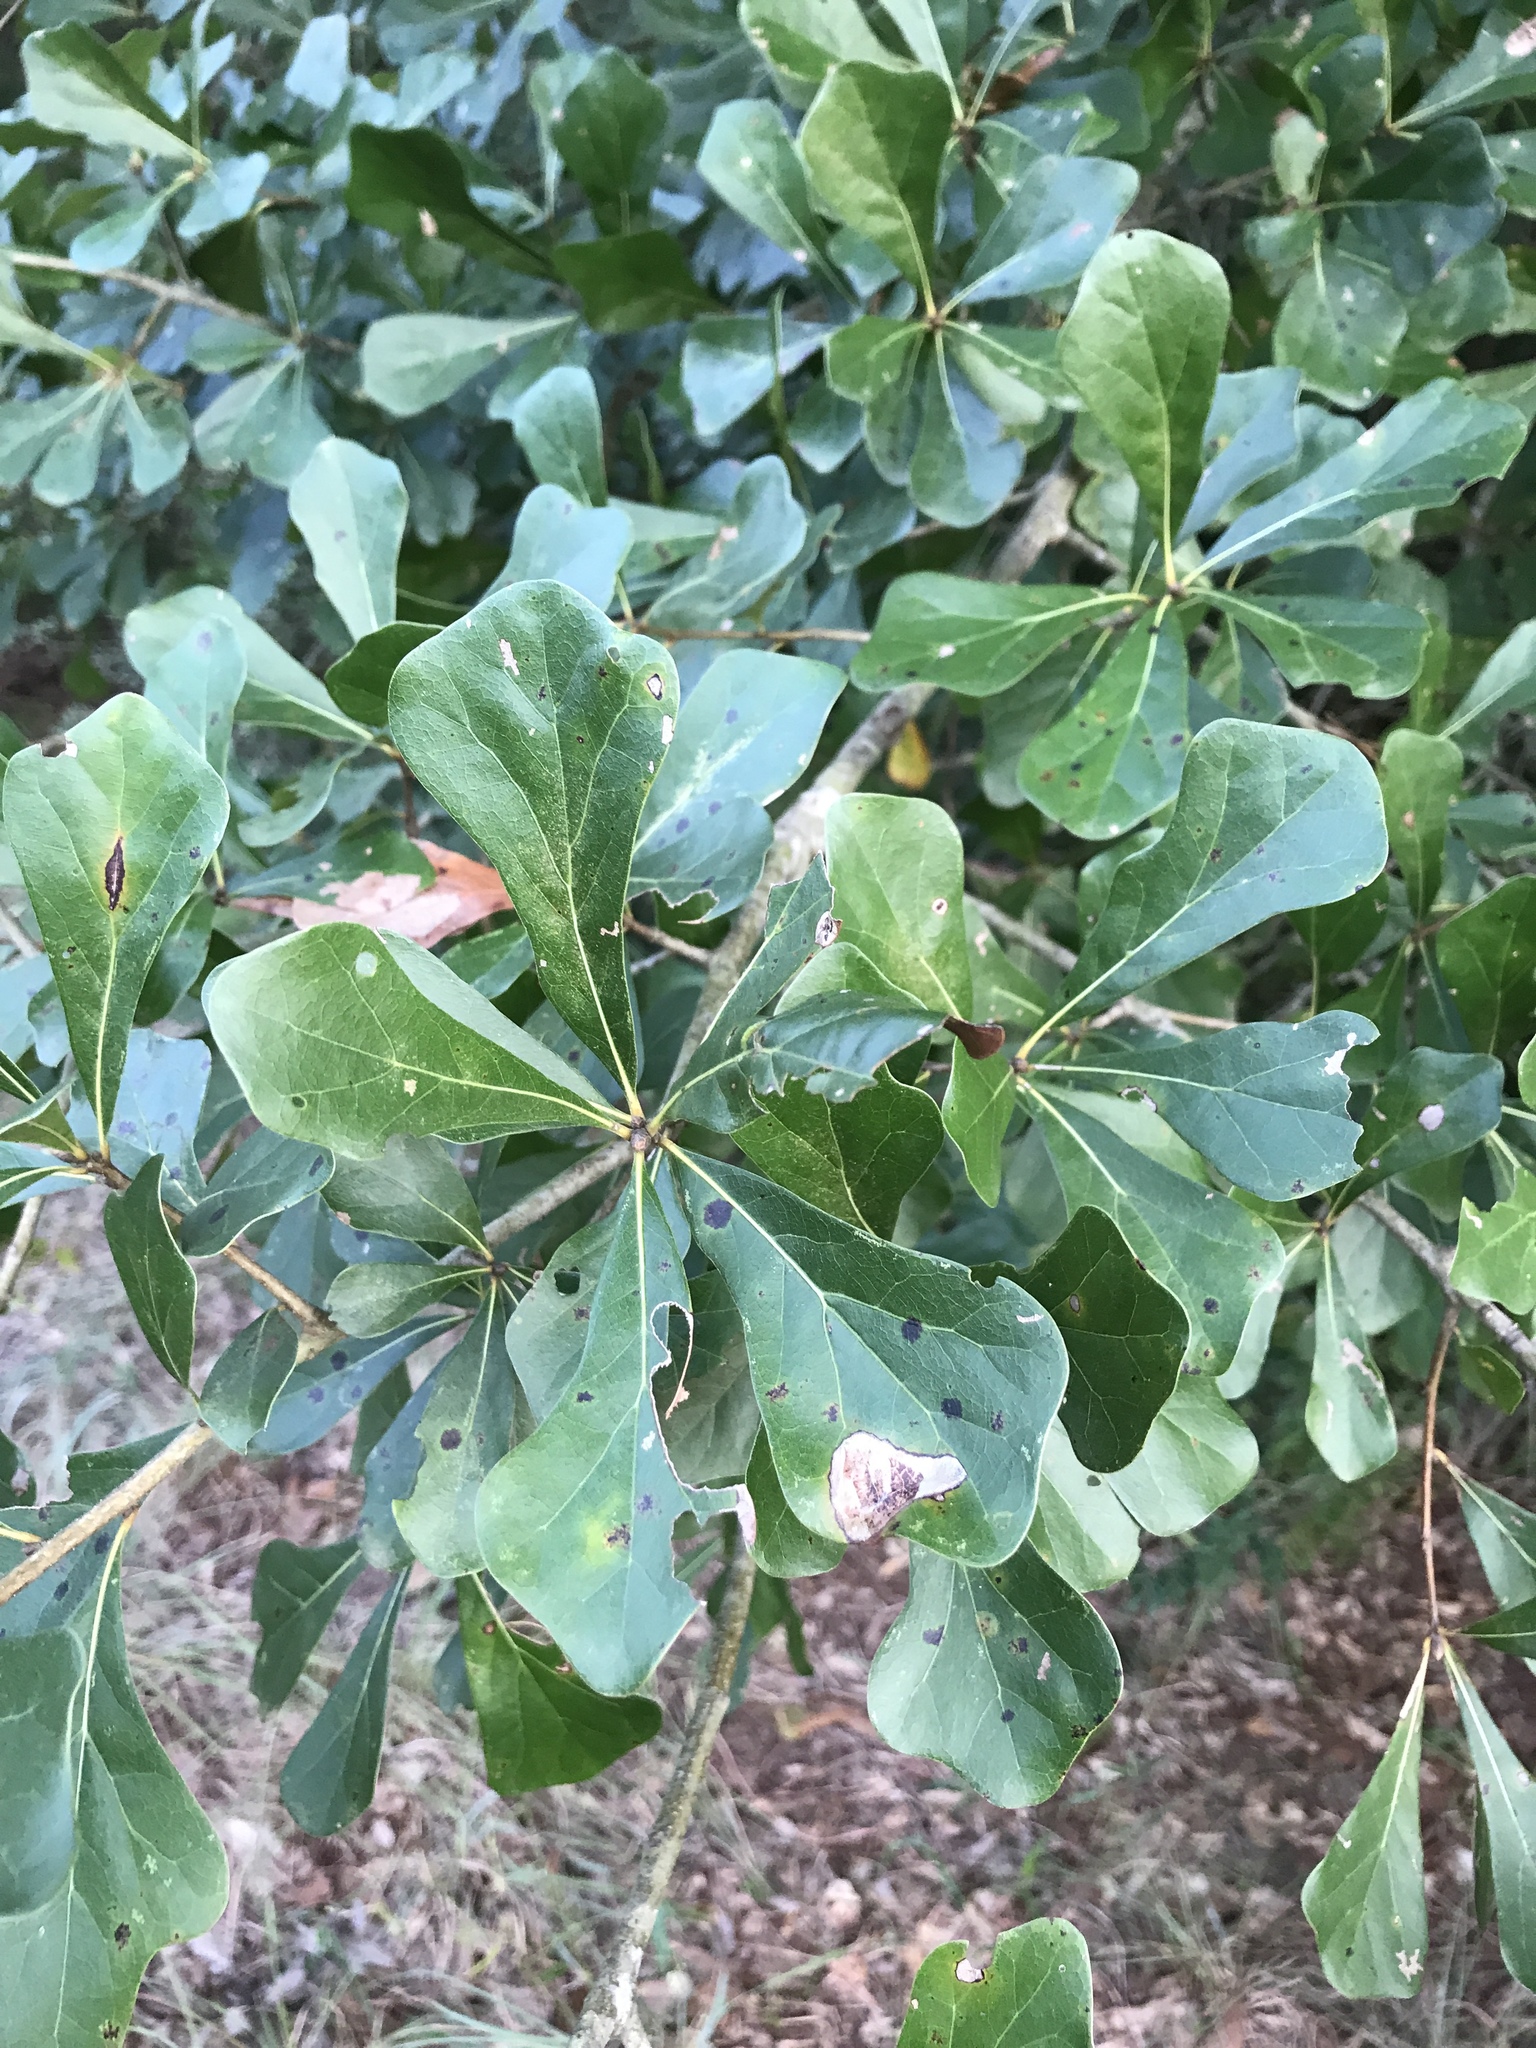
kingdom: Plantae
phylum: Tracheophyta
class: Magnoliopsida
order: Fagales
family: Fagaceae
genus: Quercus
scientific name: Quercus nigra
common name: Water oak
